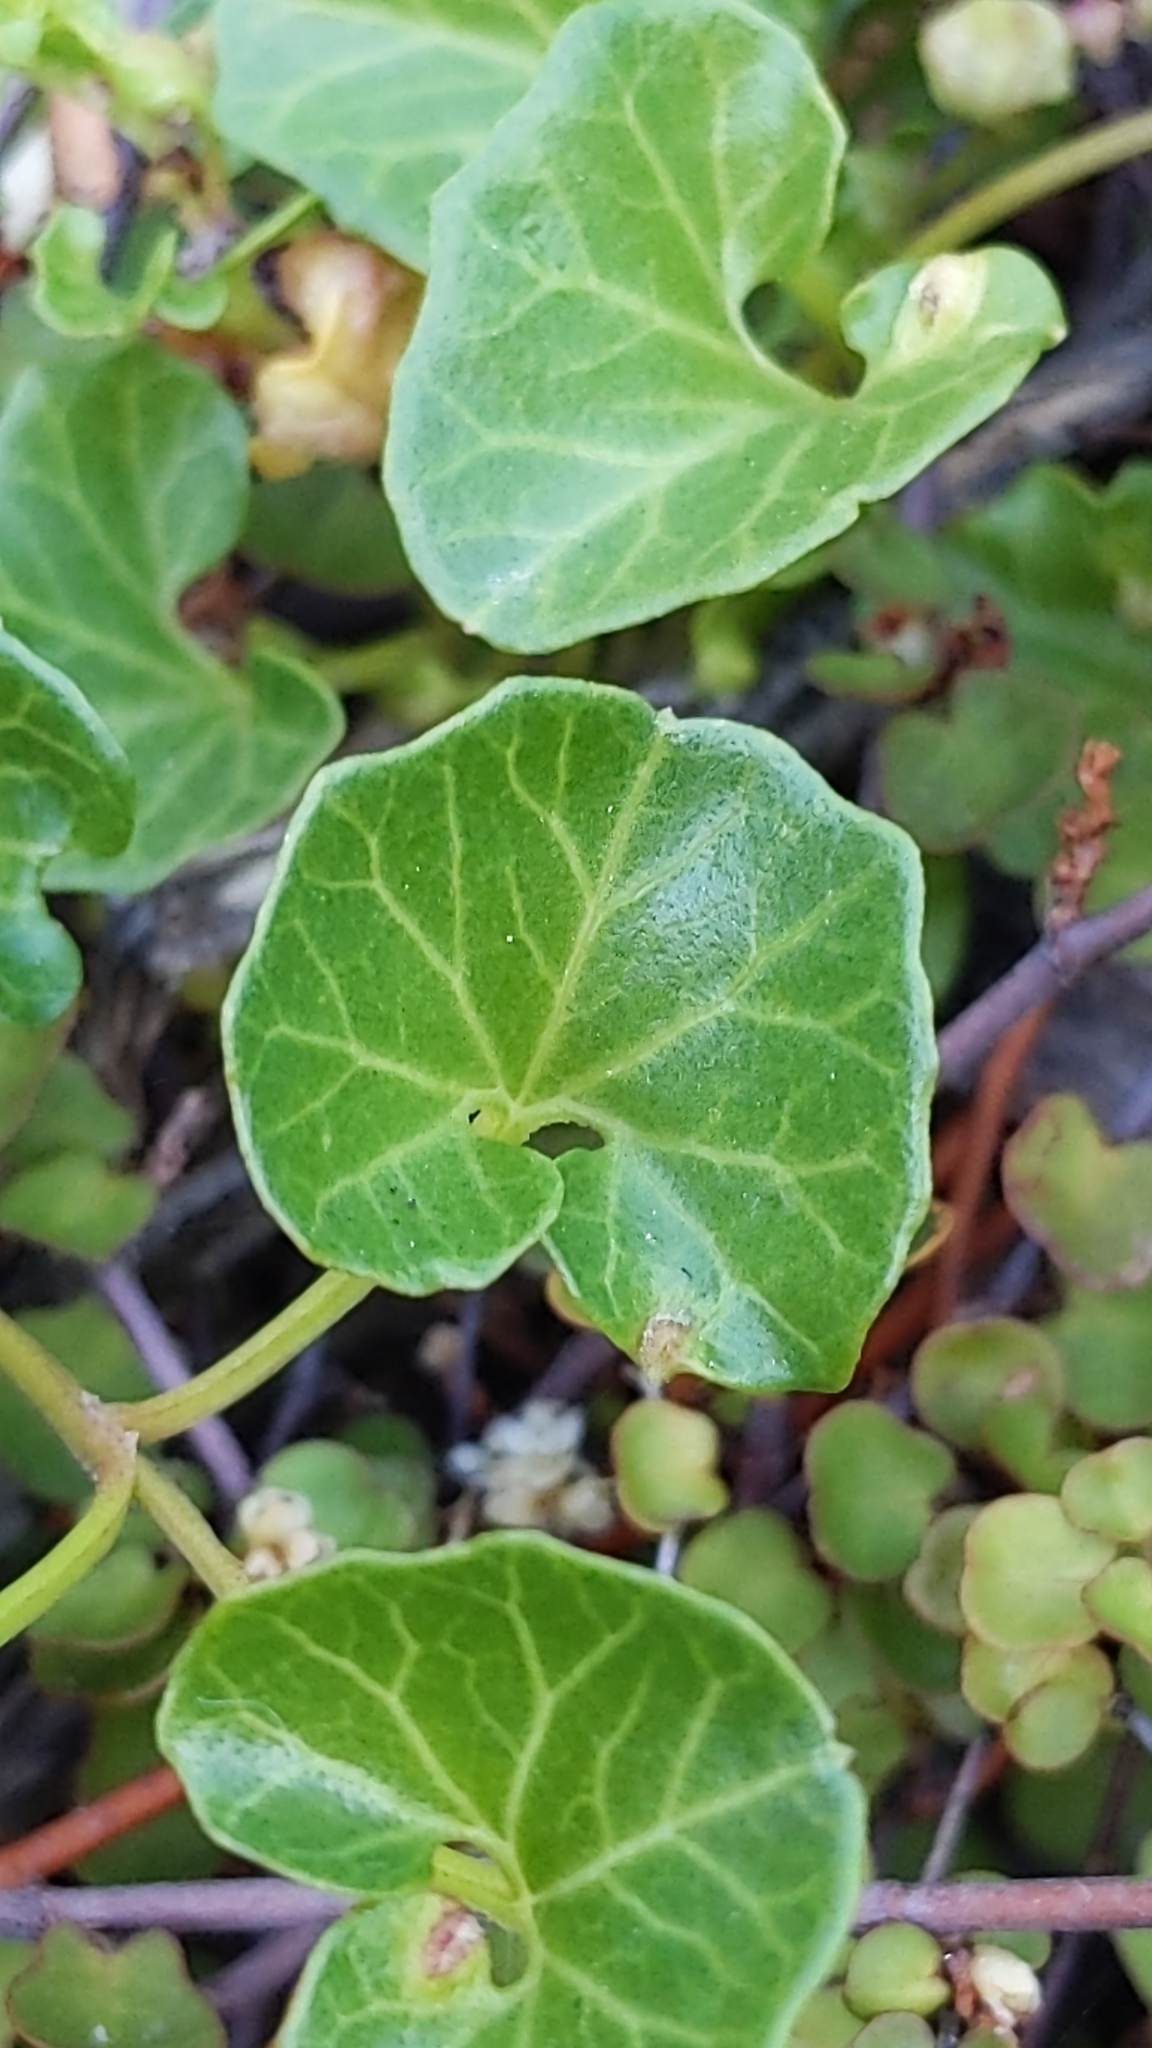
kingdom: Plantae
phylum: Tracheophyta
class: Magnoliopsida
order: Solanales
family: Convolvulaceae
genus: Calystegia
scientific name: Calystegia soldanella
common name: Sea bindweed
